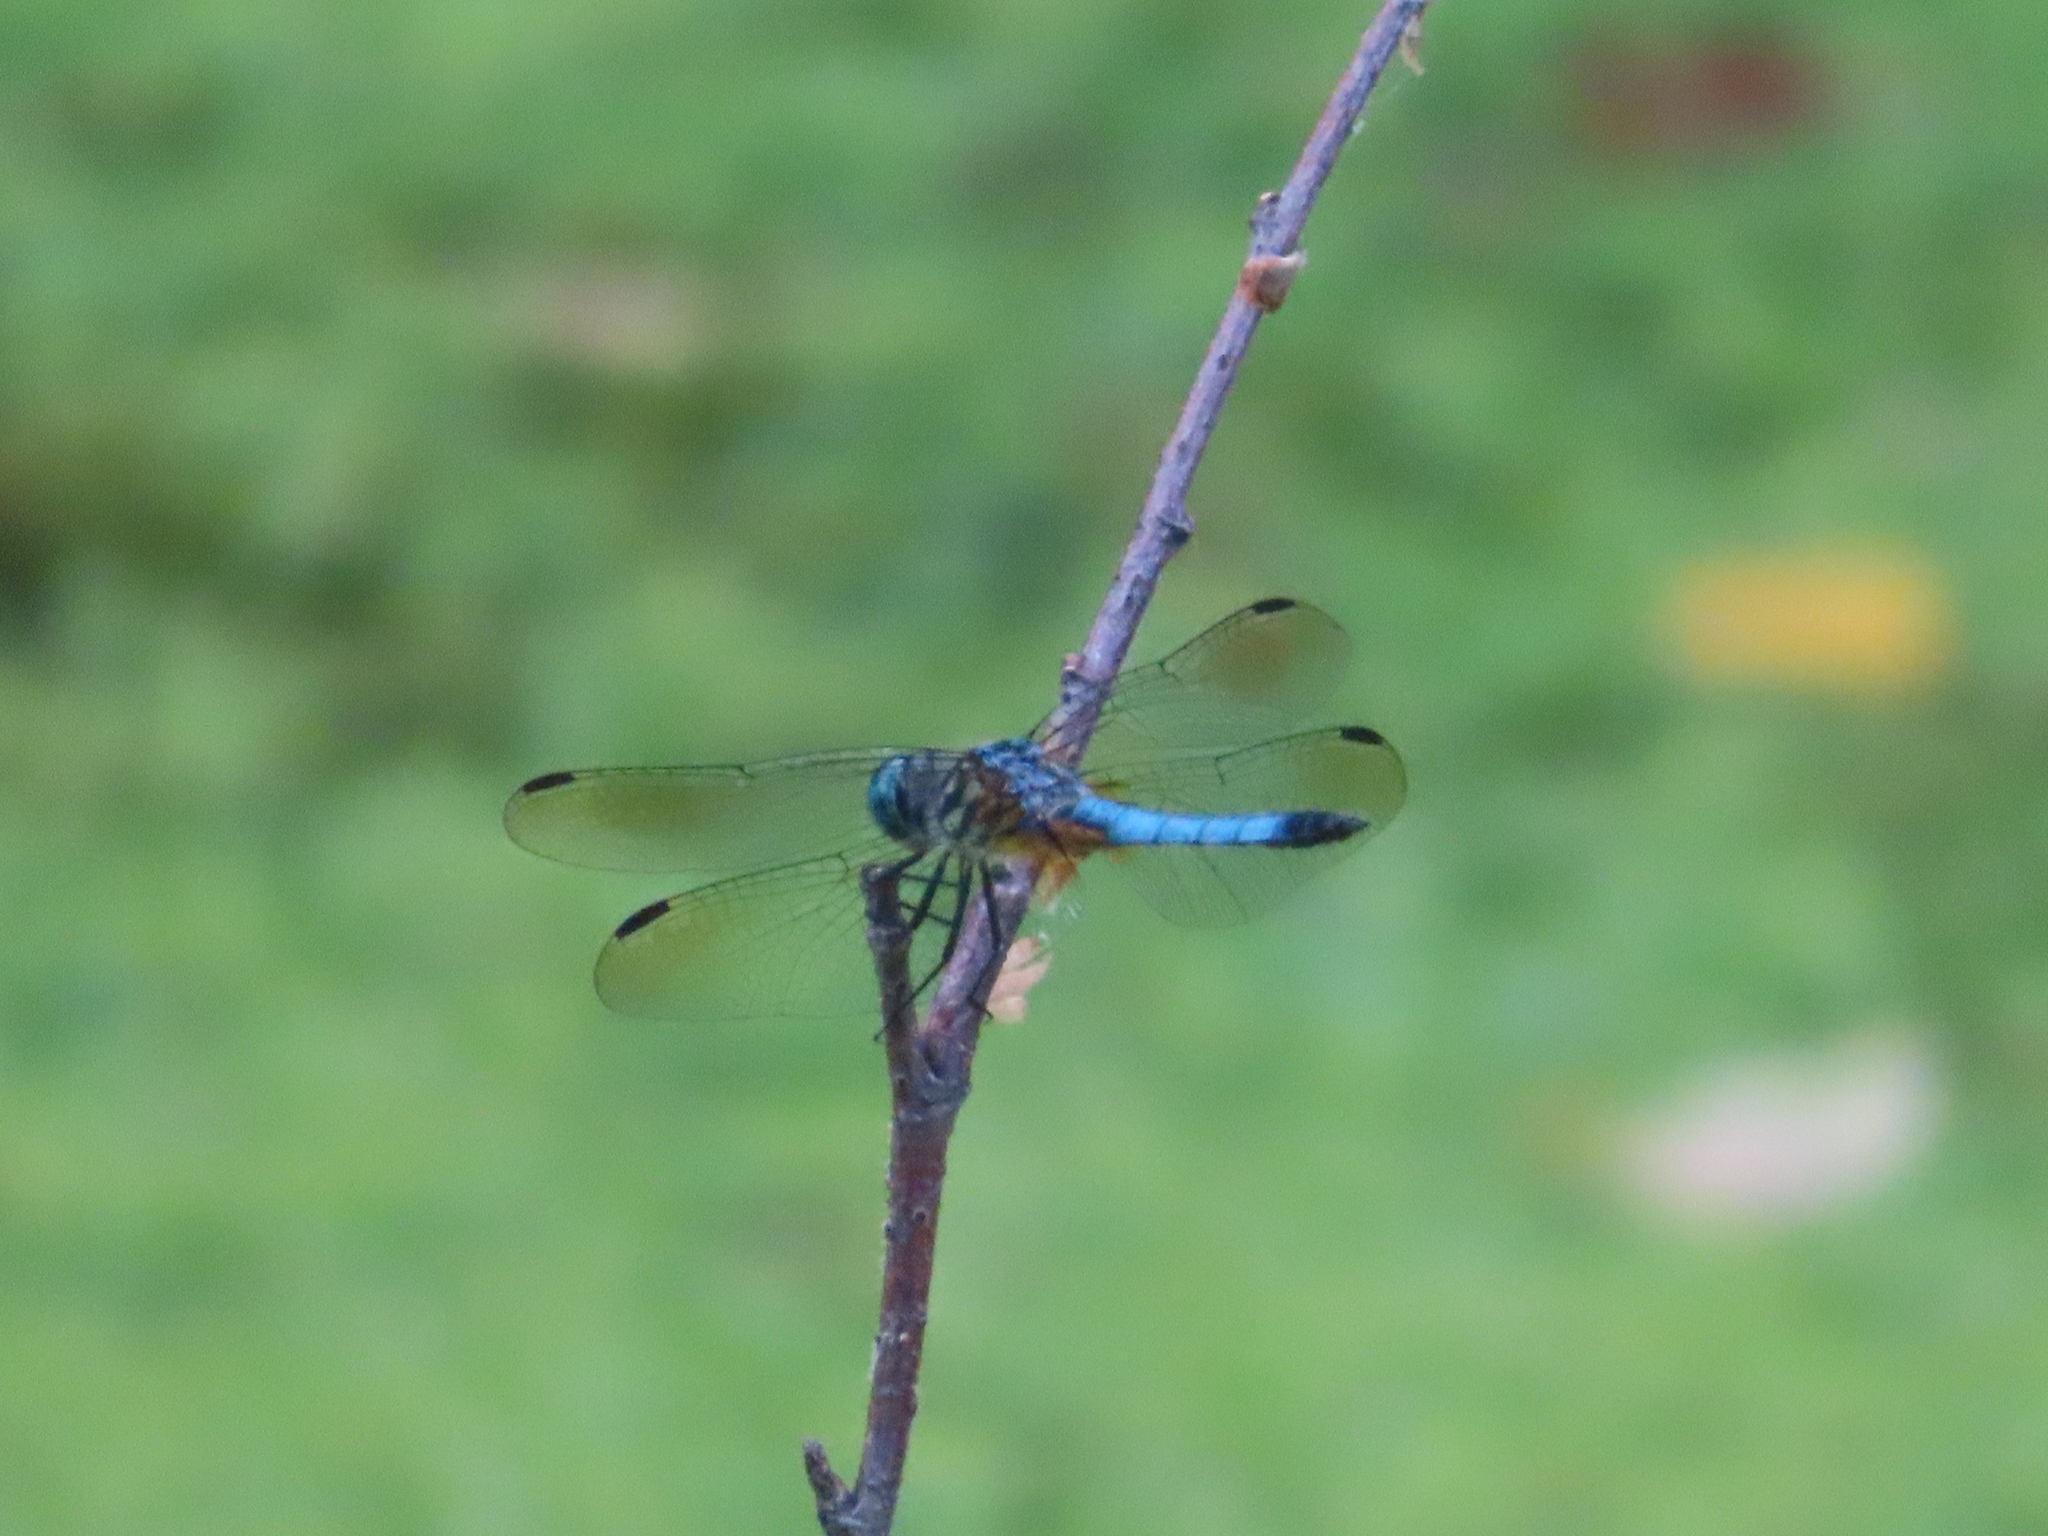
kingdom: Animalia
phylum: Arthropoda
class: Insecta
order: Odonata
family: Libellulidae
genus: Pachydiplax
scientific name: Pachydiplax longipennis
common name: Blue dasher
